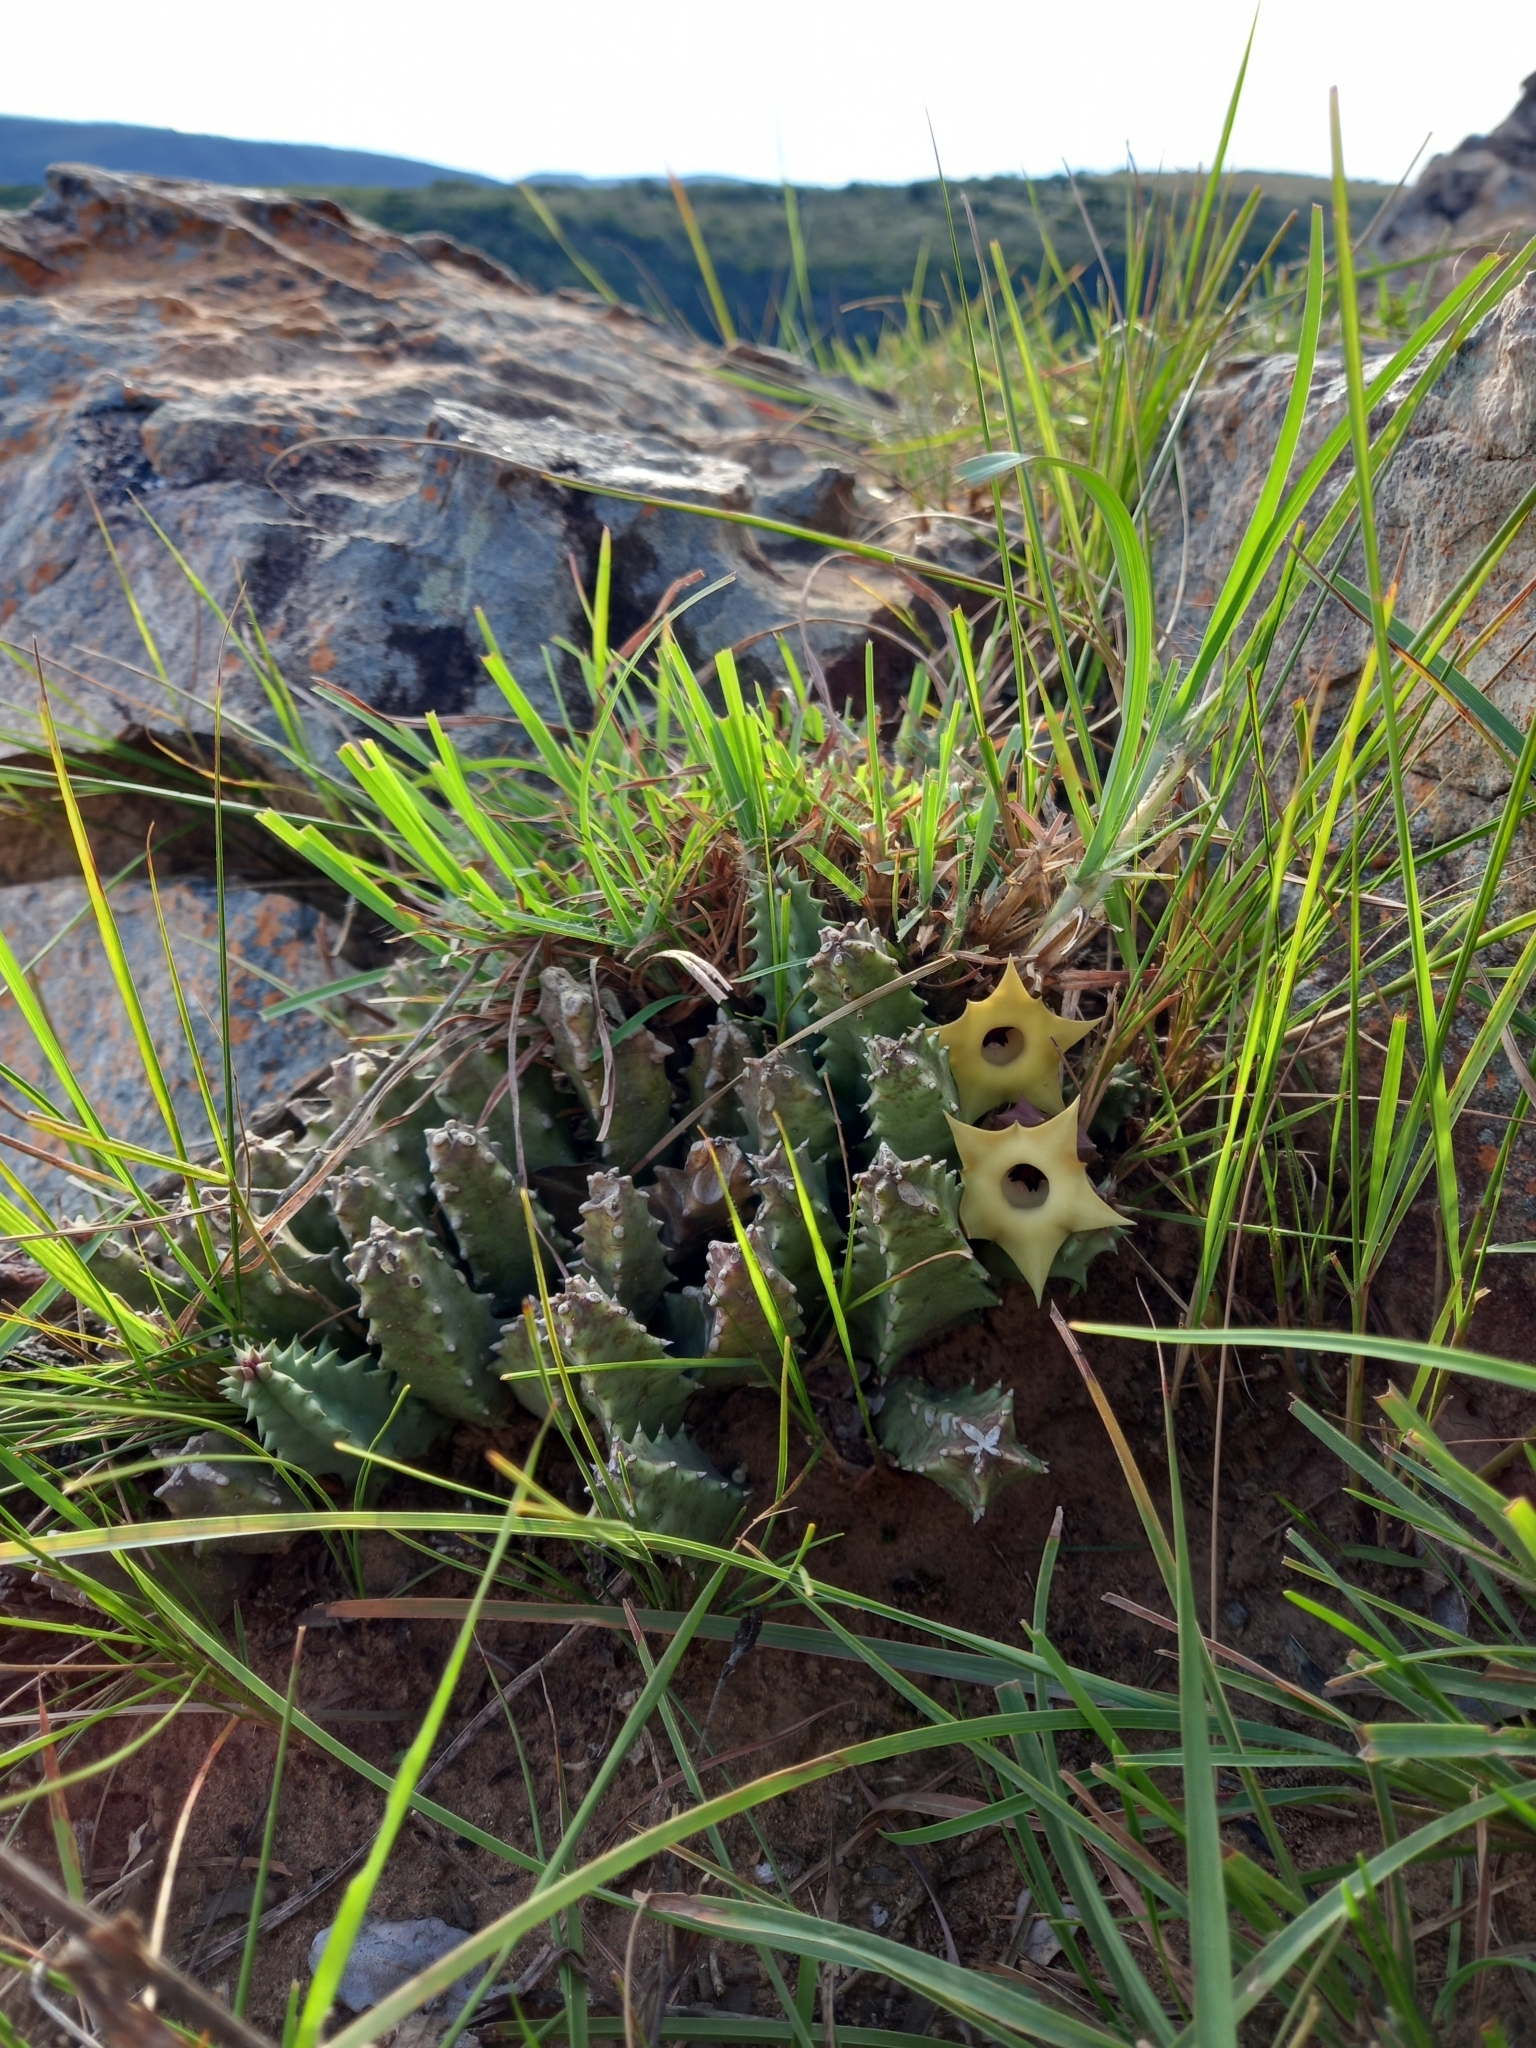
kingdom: Plantae
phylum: Tracheophyta
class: Magnoliopsida
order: Gentianales
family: Apocynaceae
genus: Ceropegia
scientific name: Ceropegia thuretii
